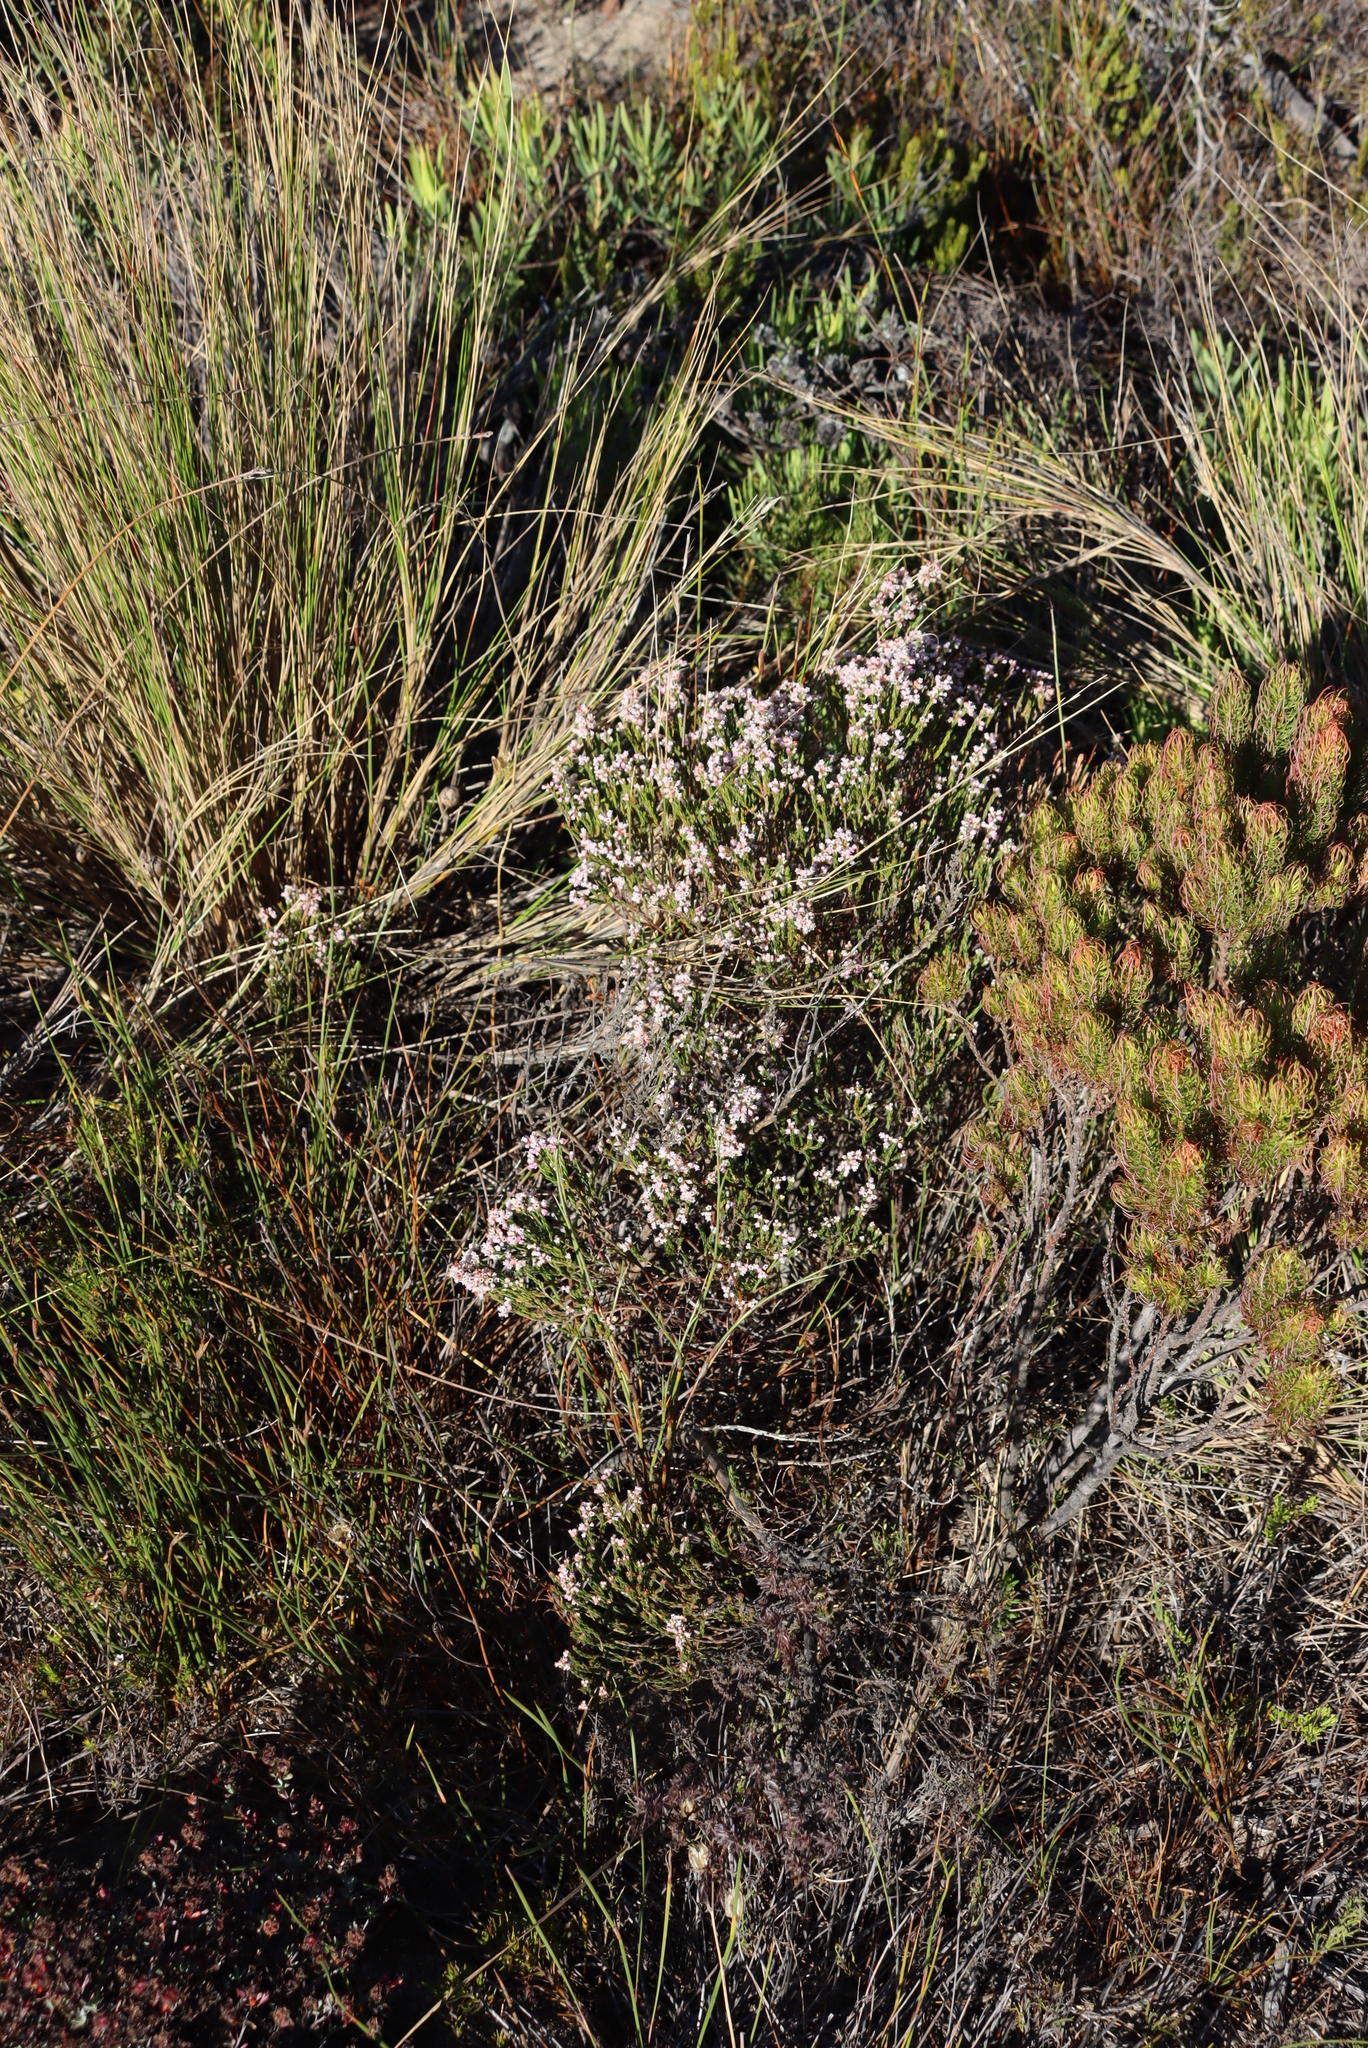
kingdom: Plantae
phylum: Tracheophyta
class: Magnoliopsida
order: Ericales
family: Ericaceae
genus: Erica
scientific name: Erica articularis
